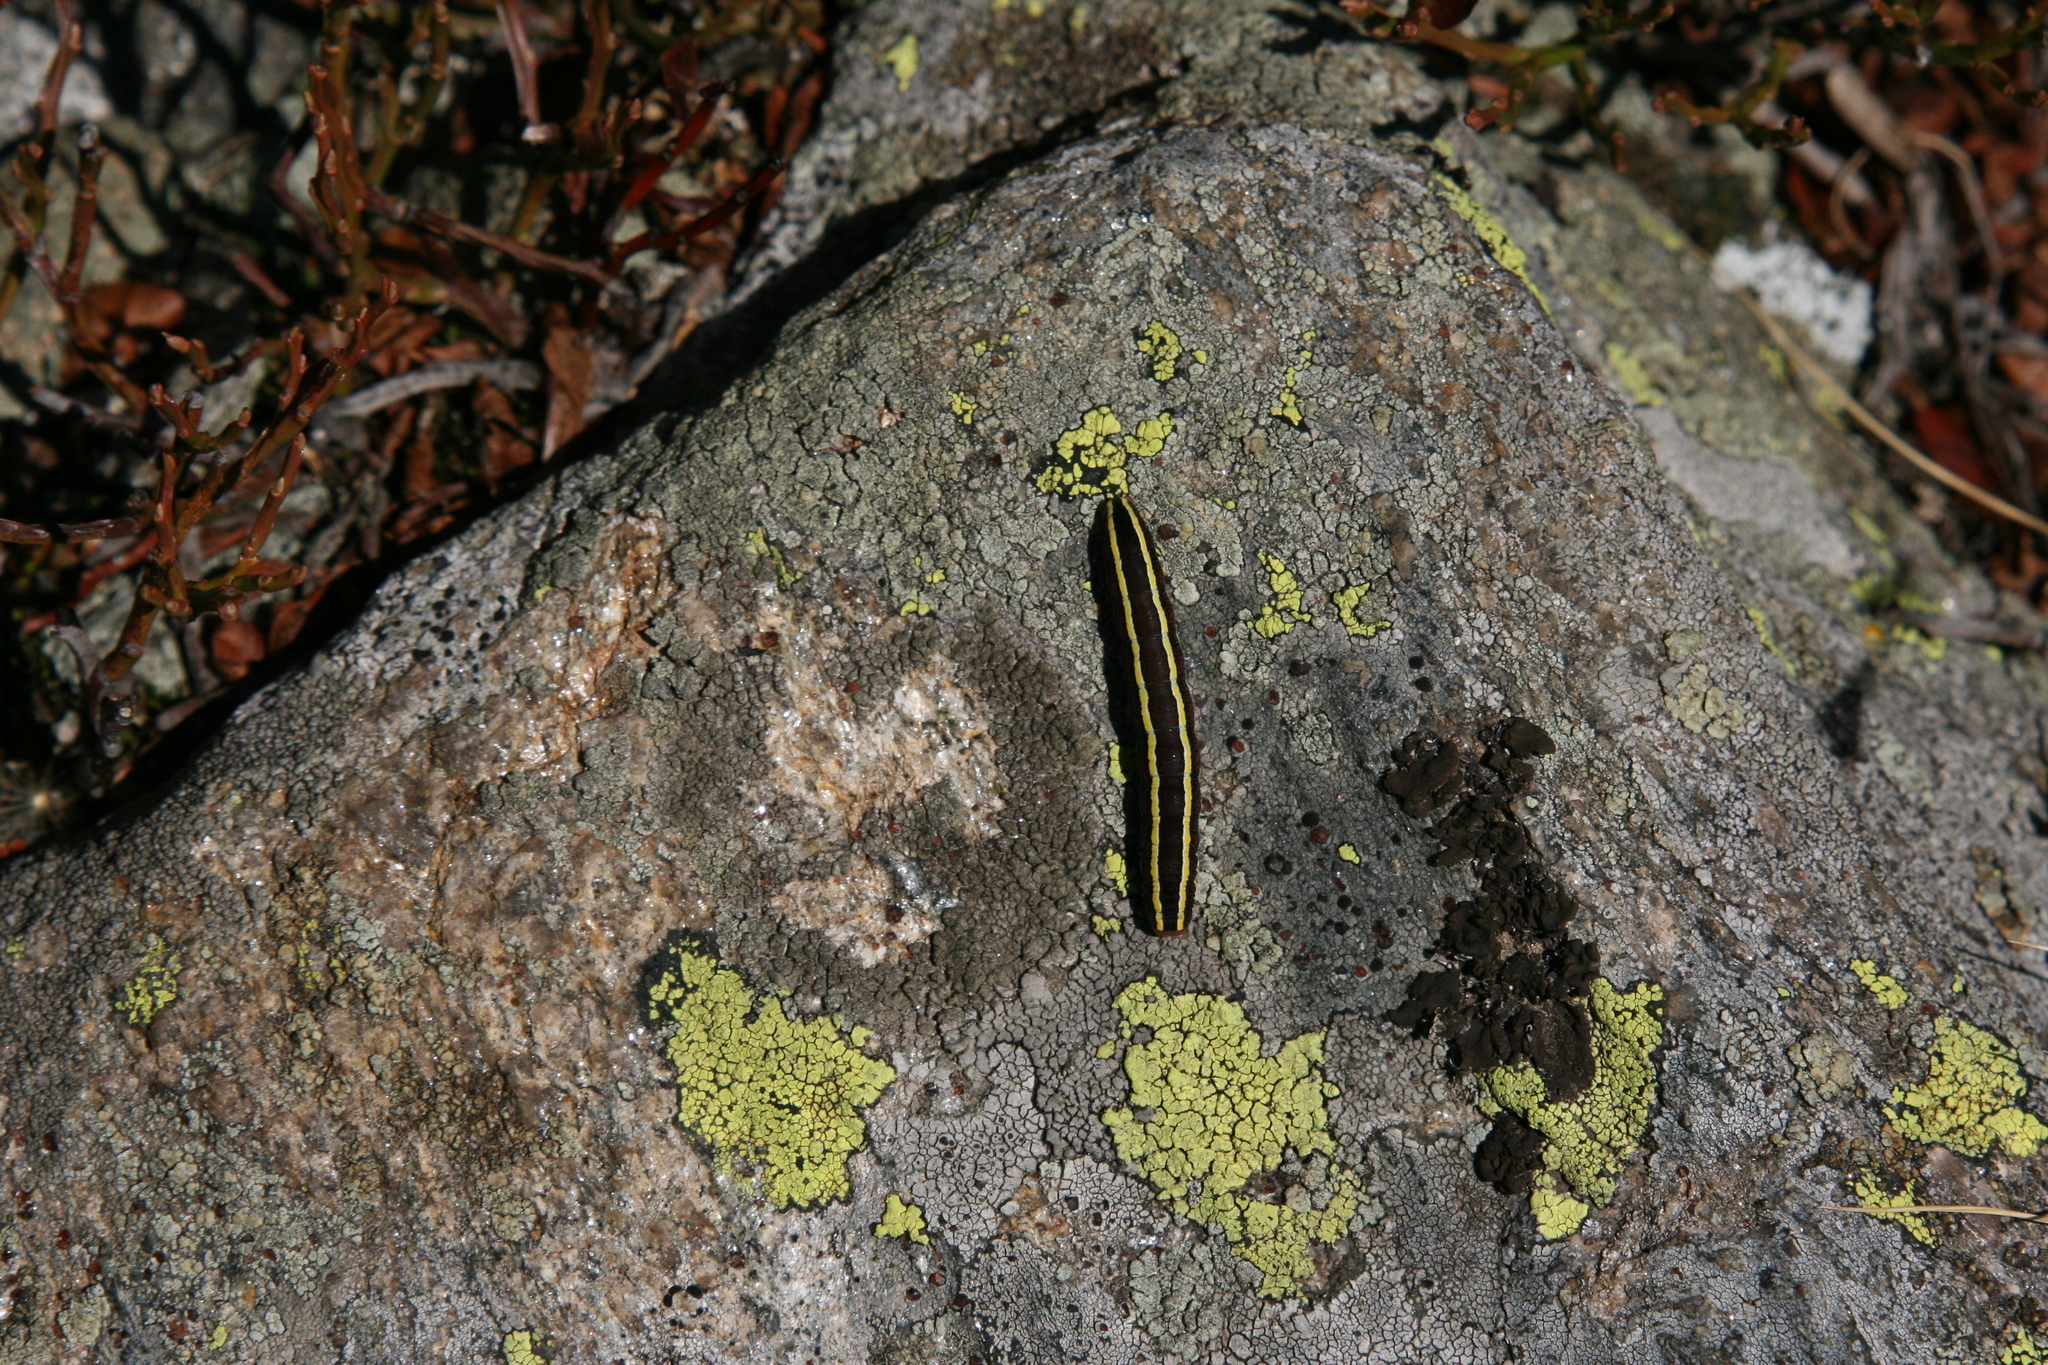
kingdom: Animalia
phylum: Arthropoda
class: Insecta
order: Lepidoptera
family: Noctuidae
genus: Ceramica
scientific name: Ceramica pisi
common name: Broom moth
